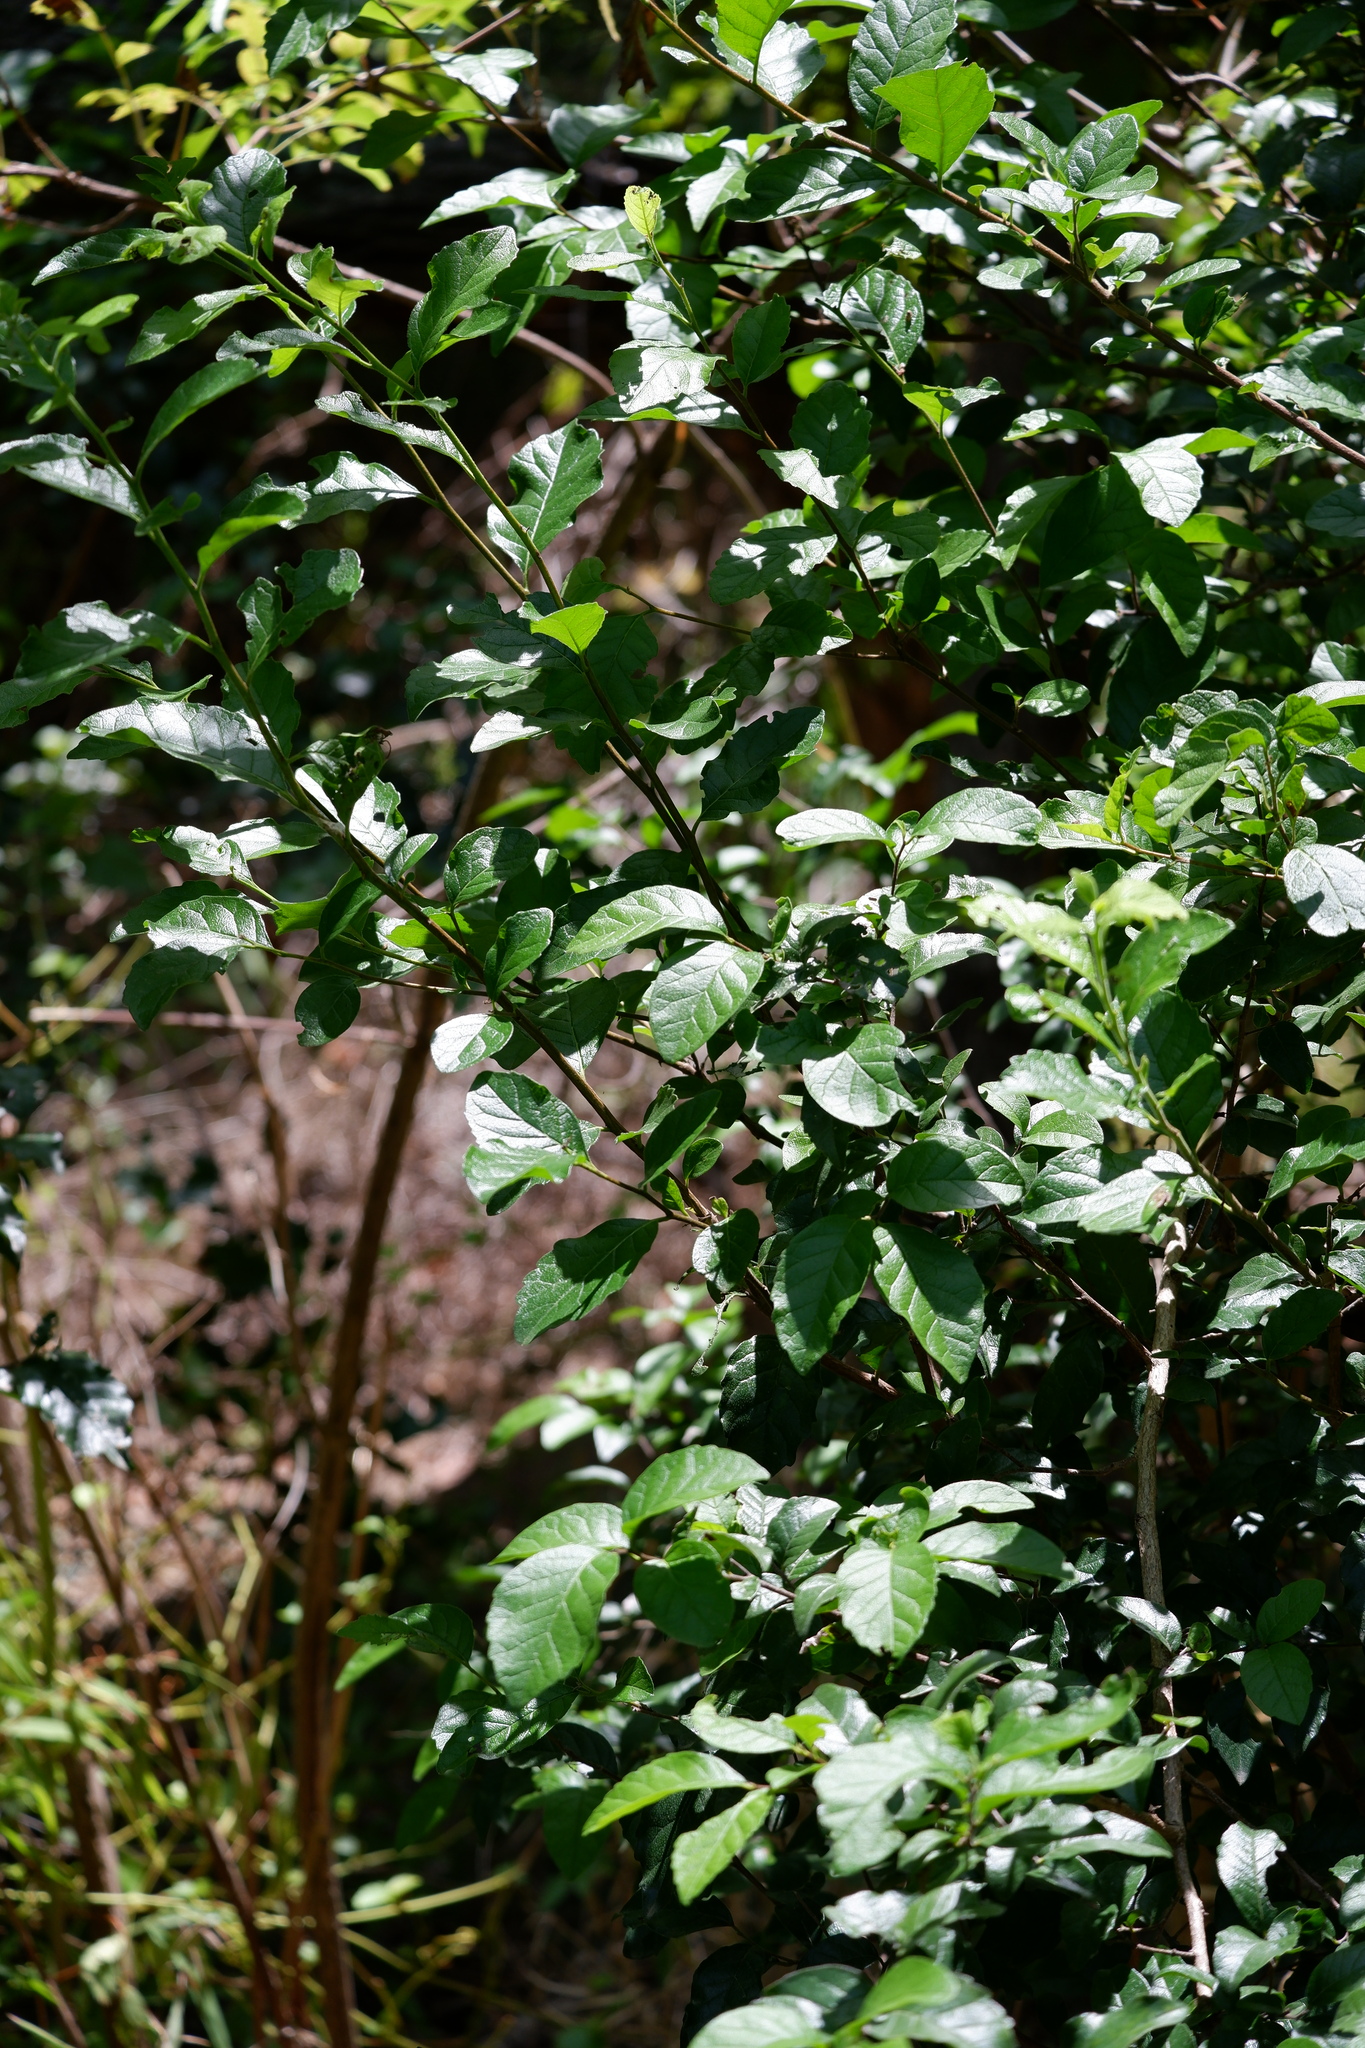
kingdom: Plantae
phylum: Tracheophyta
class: Magnoliopsida
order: Boraginales
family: Ehretiaceae
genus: Ehretia
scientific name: Ehretia anacua
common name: Sugarberry
